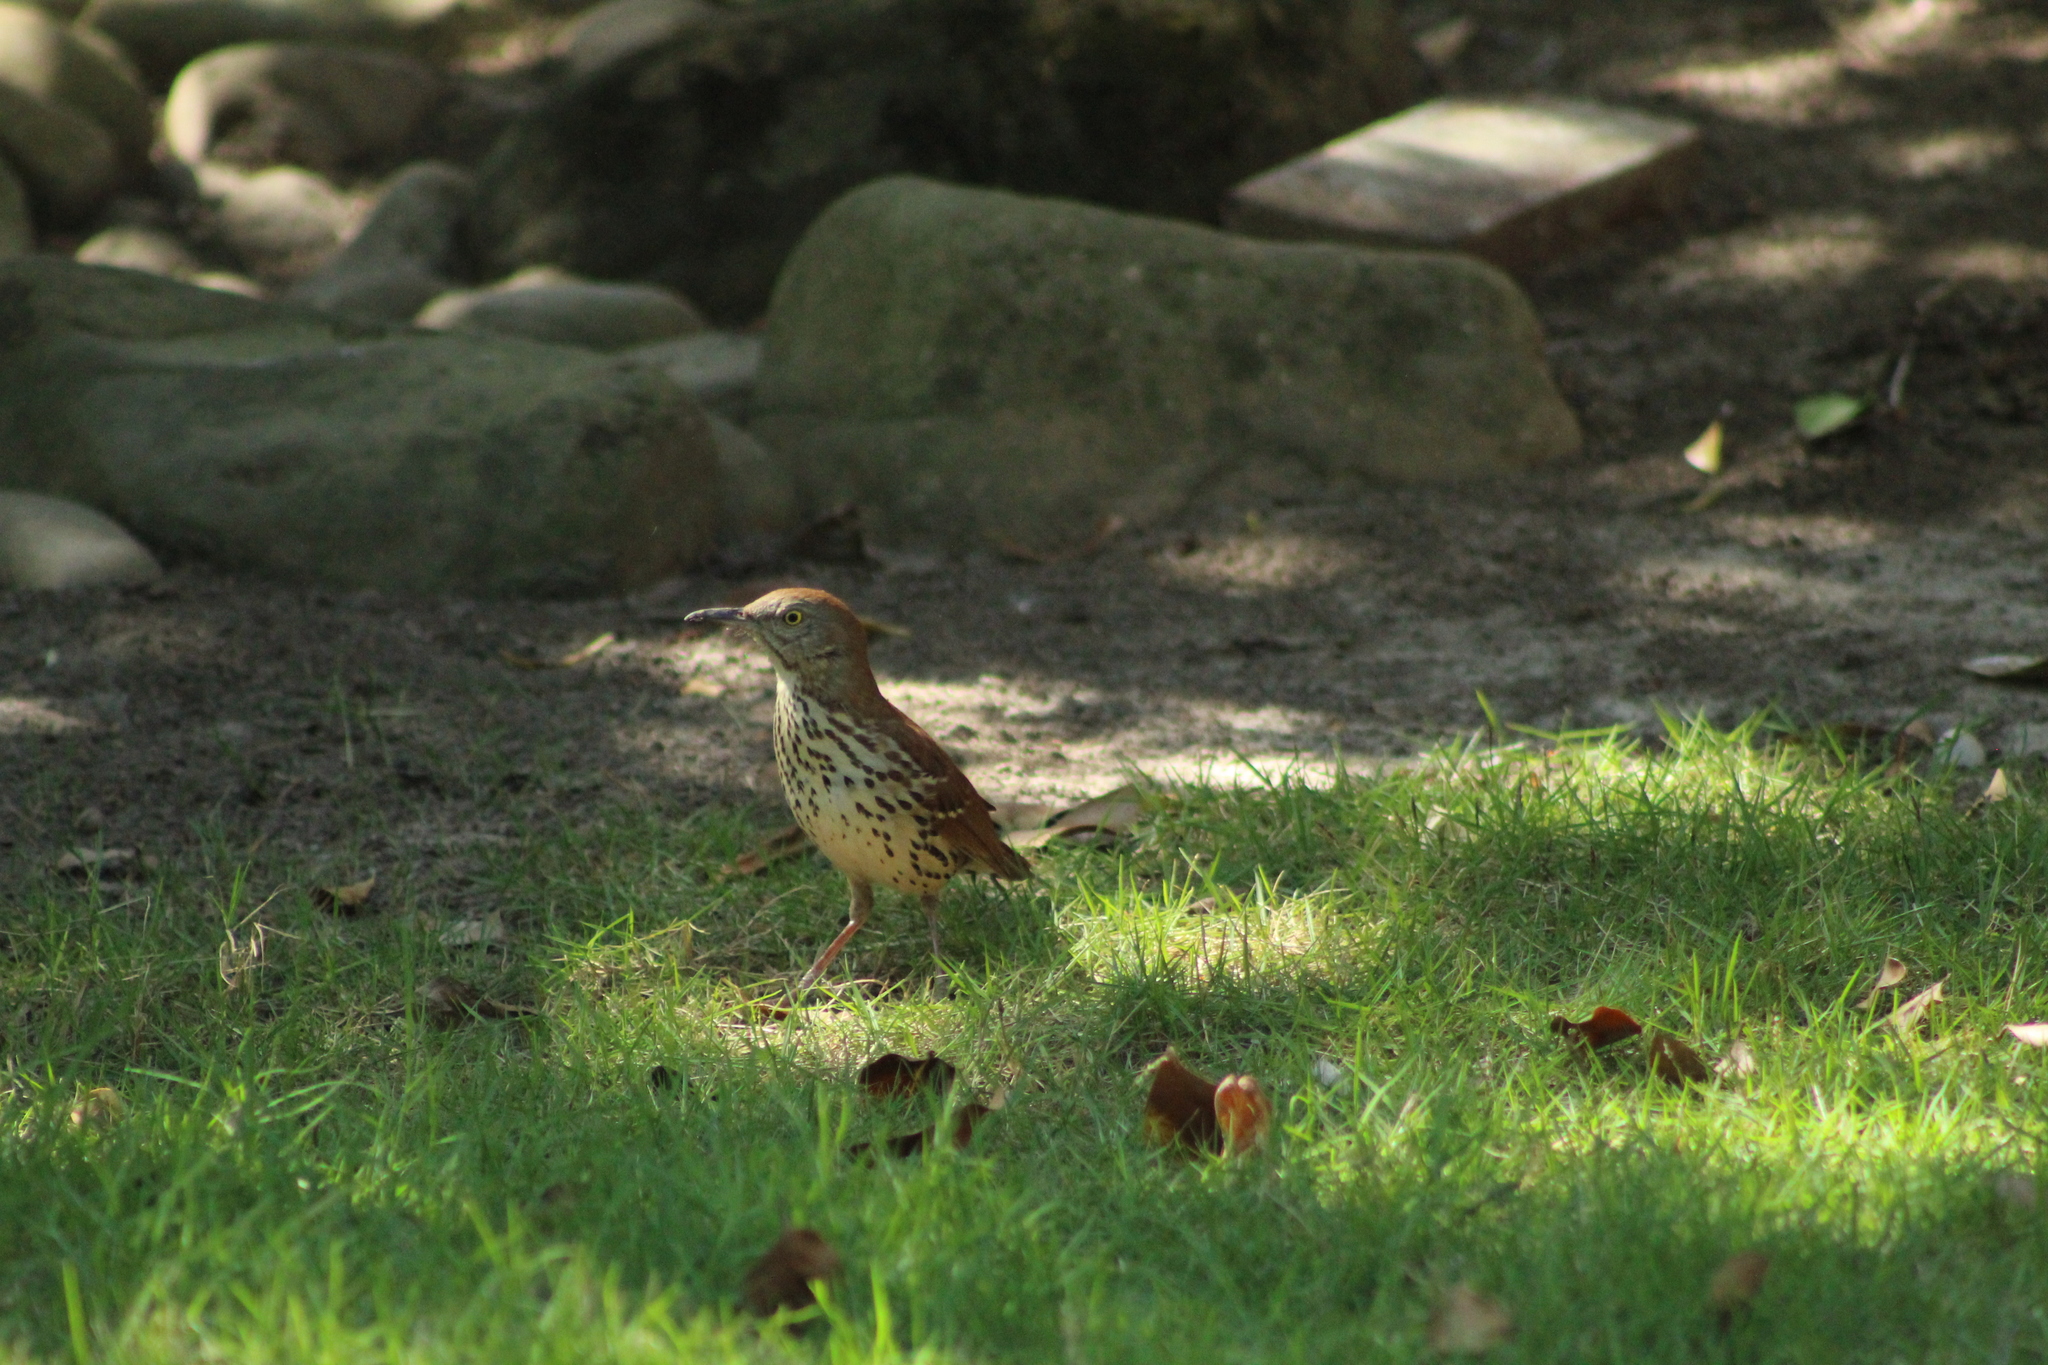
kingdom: Animalia
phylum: Chordata
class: Aves
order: Passeriformes
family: Mimidae
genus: Toxostoma
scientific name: Toxostoma rufum
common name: Brown thrasher
